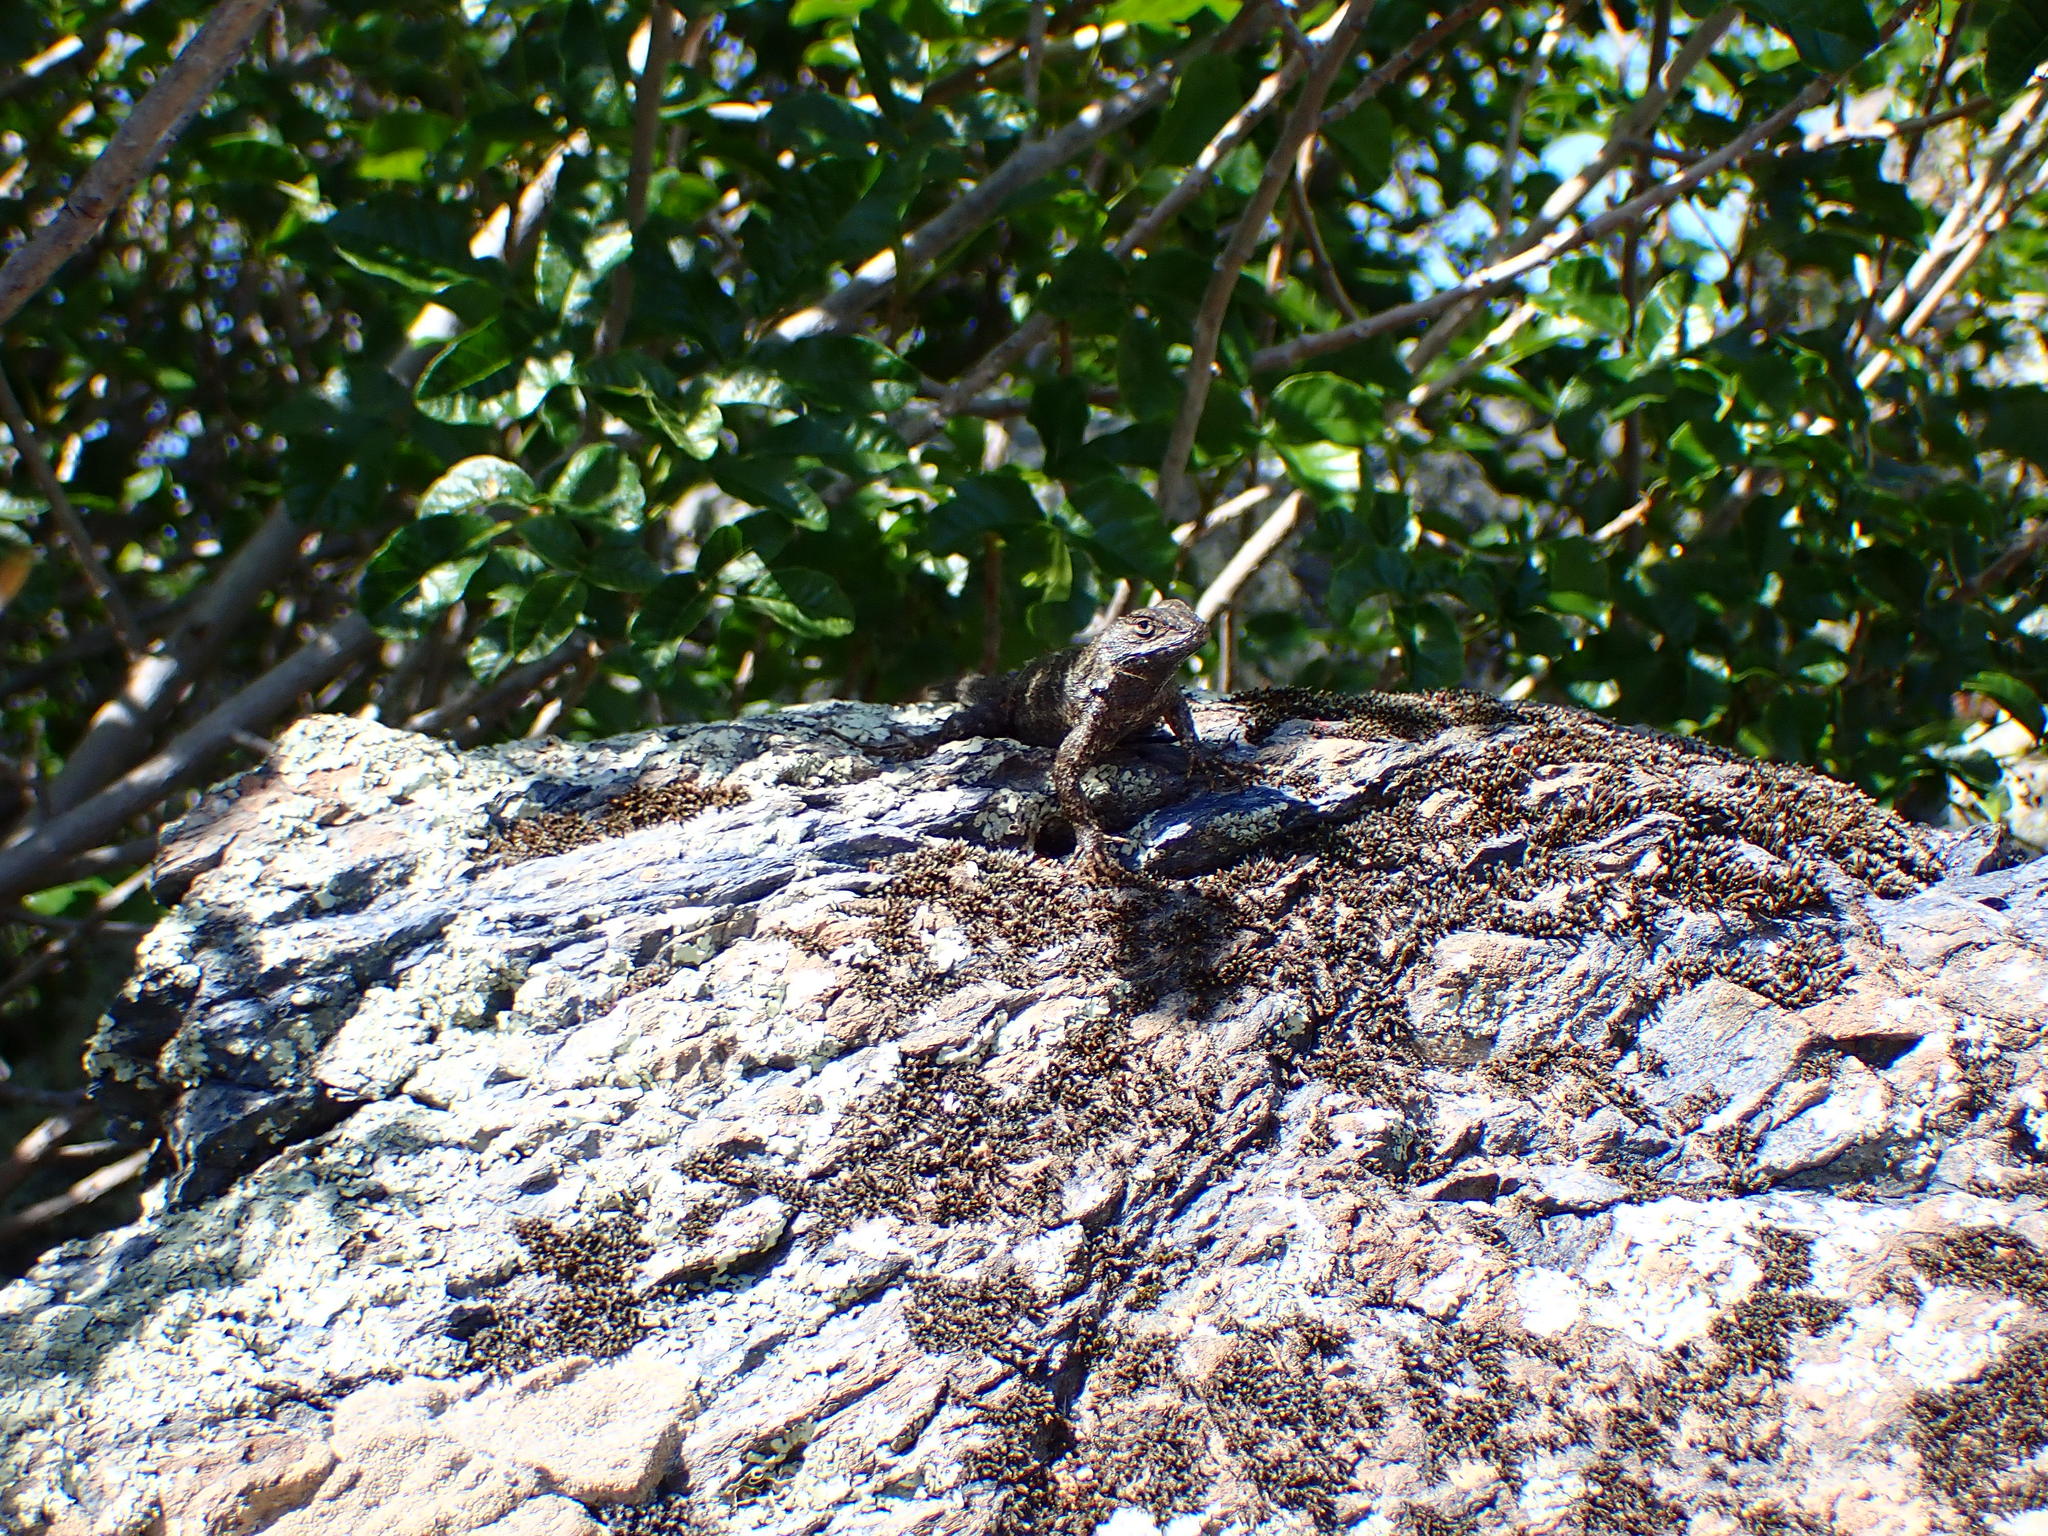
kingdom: Animalia
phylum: Chordata
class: Squamata
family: Phrynosomatidae
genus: Sceloporus
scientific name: Sceloporus occidentalis
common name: Western fence lizard
